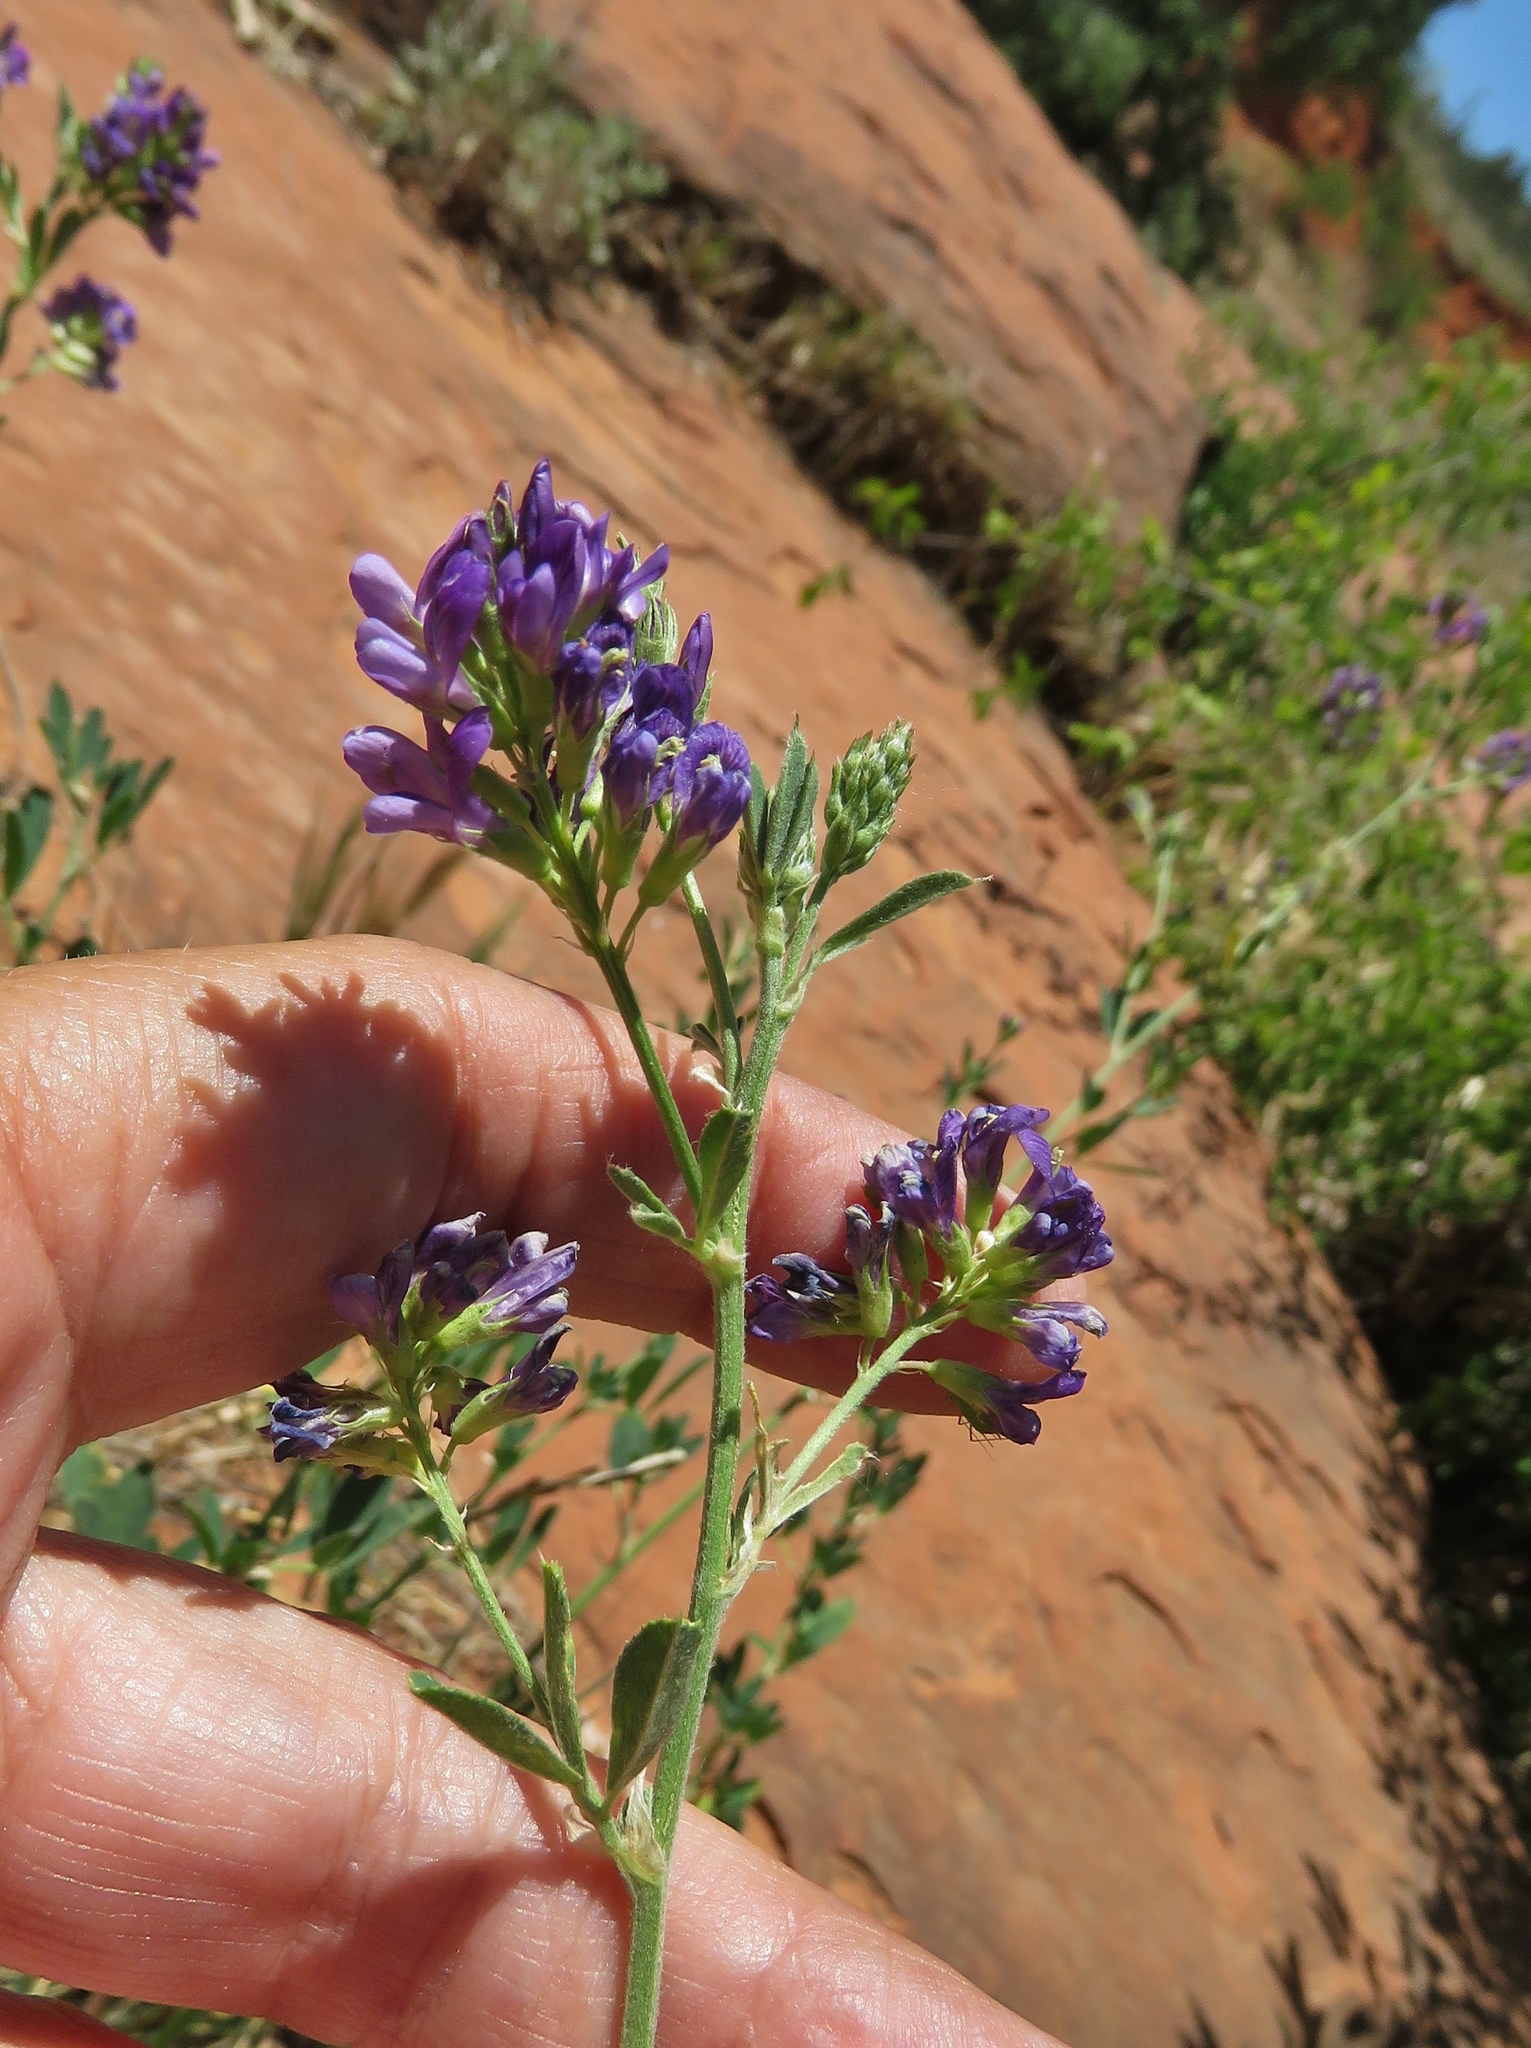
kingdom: Plantae
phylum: Tracheophyta
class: Magnoliopsida
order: Fabales
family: Fabaceae
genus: Medicago
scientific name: Medicago sativa
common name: Alfalfa
